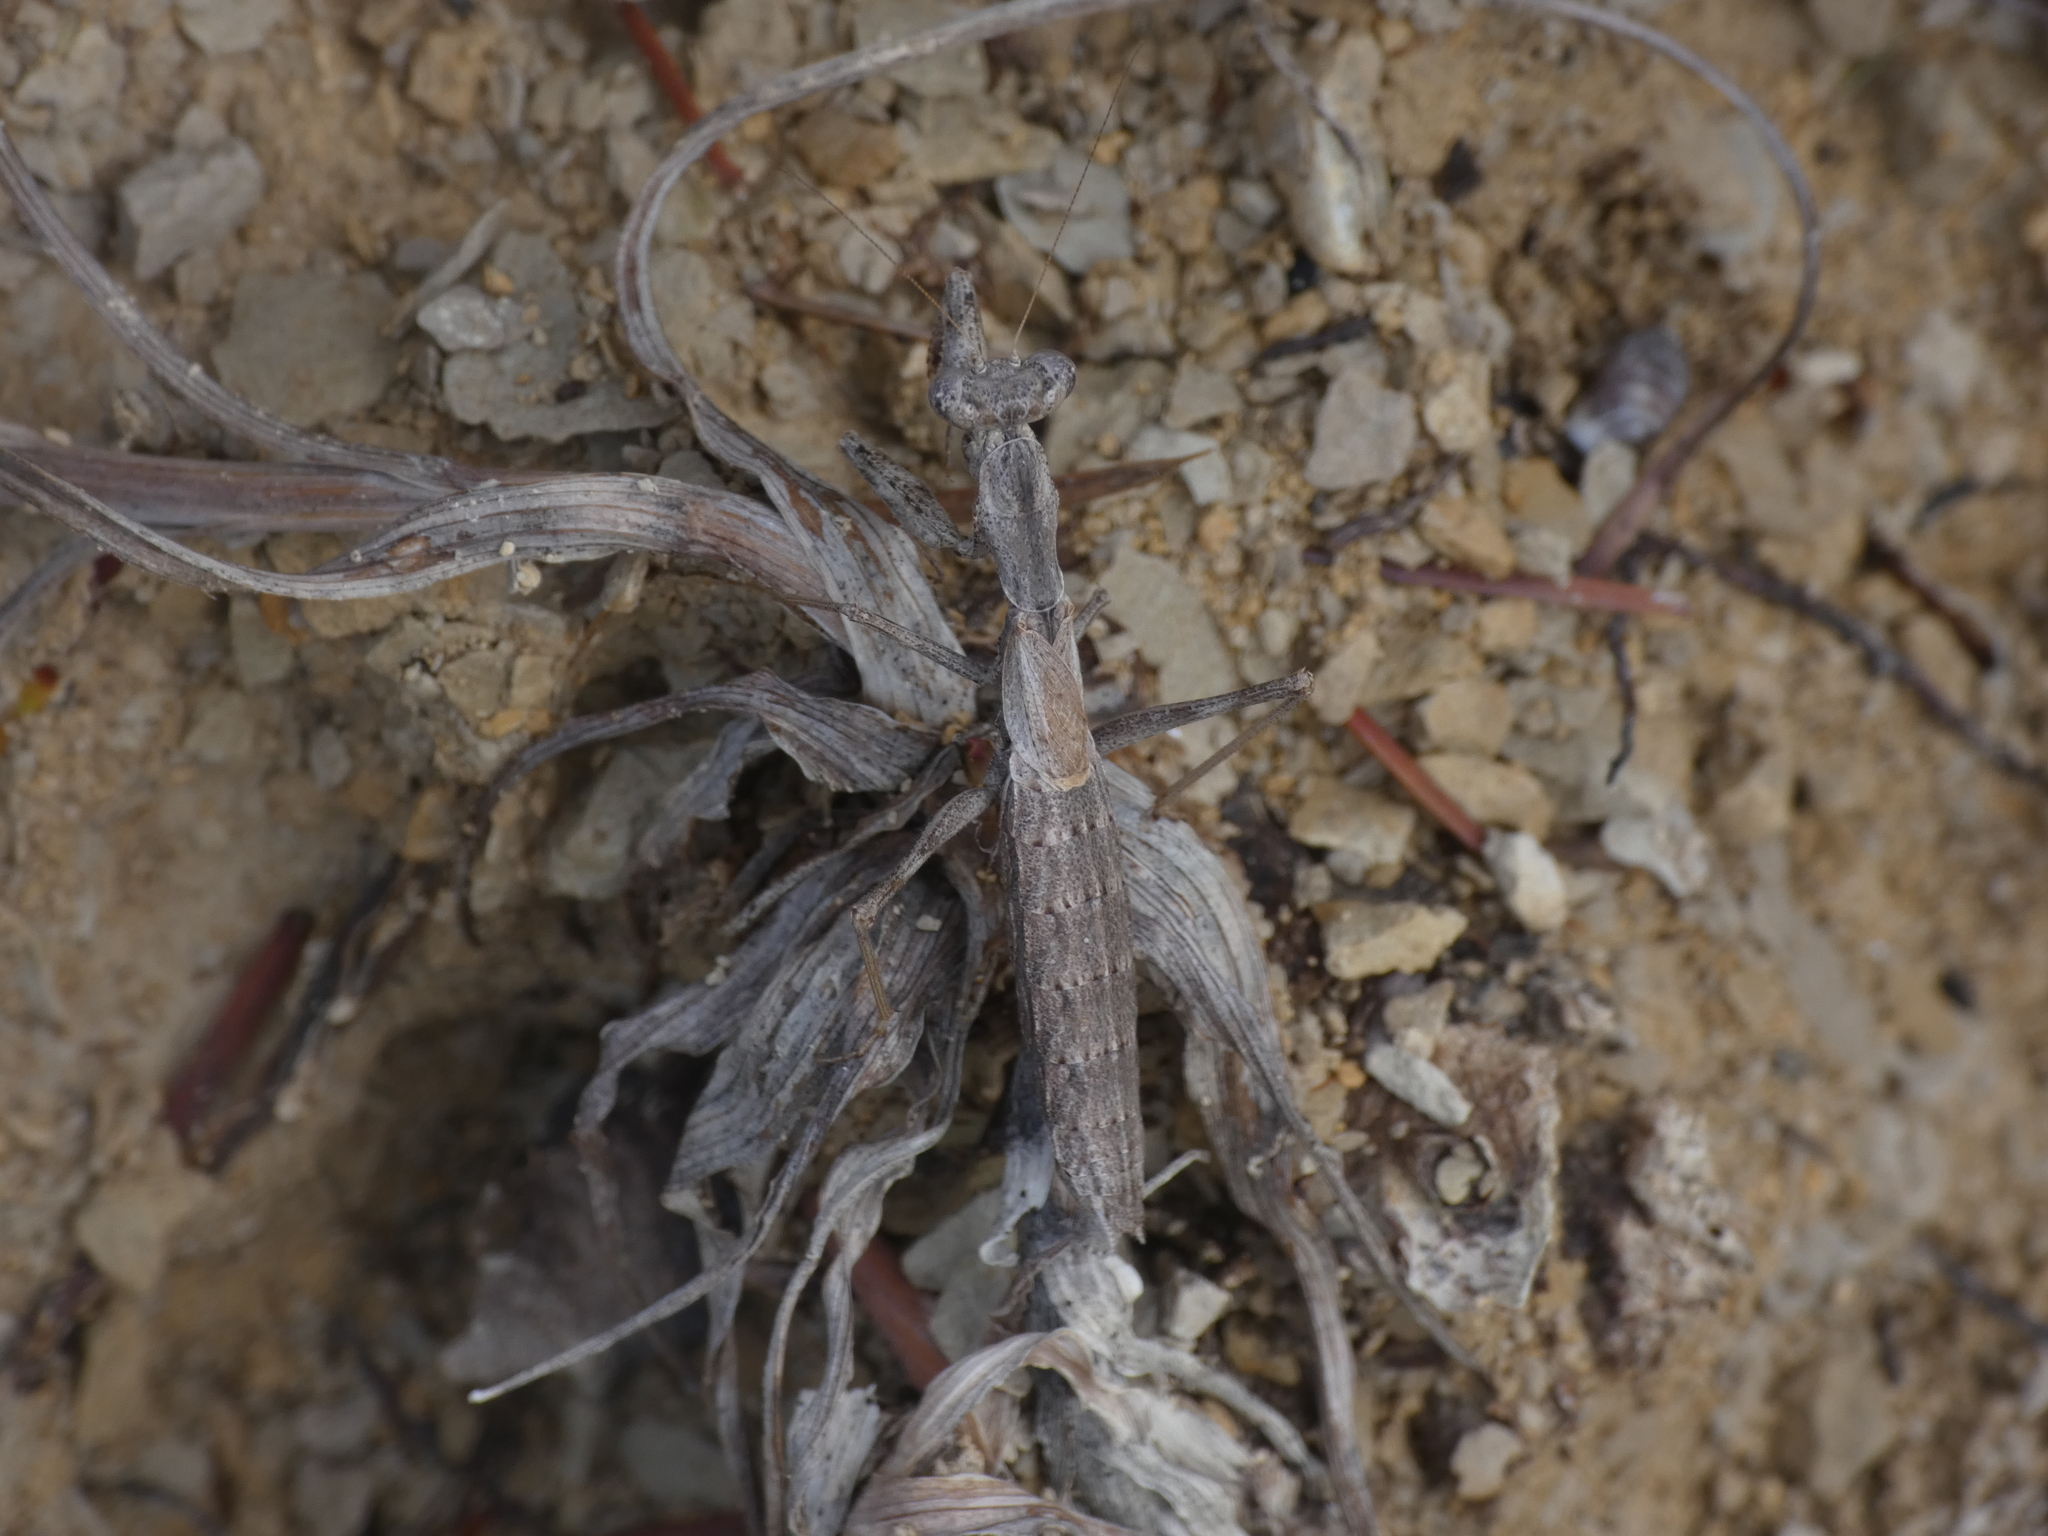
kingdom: Animalia
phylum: Arthropoda
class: Insecta
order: Mantodea
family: Amelidae
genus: Ameles
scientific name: Ameles decolor
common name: Dwarf mantis
